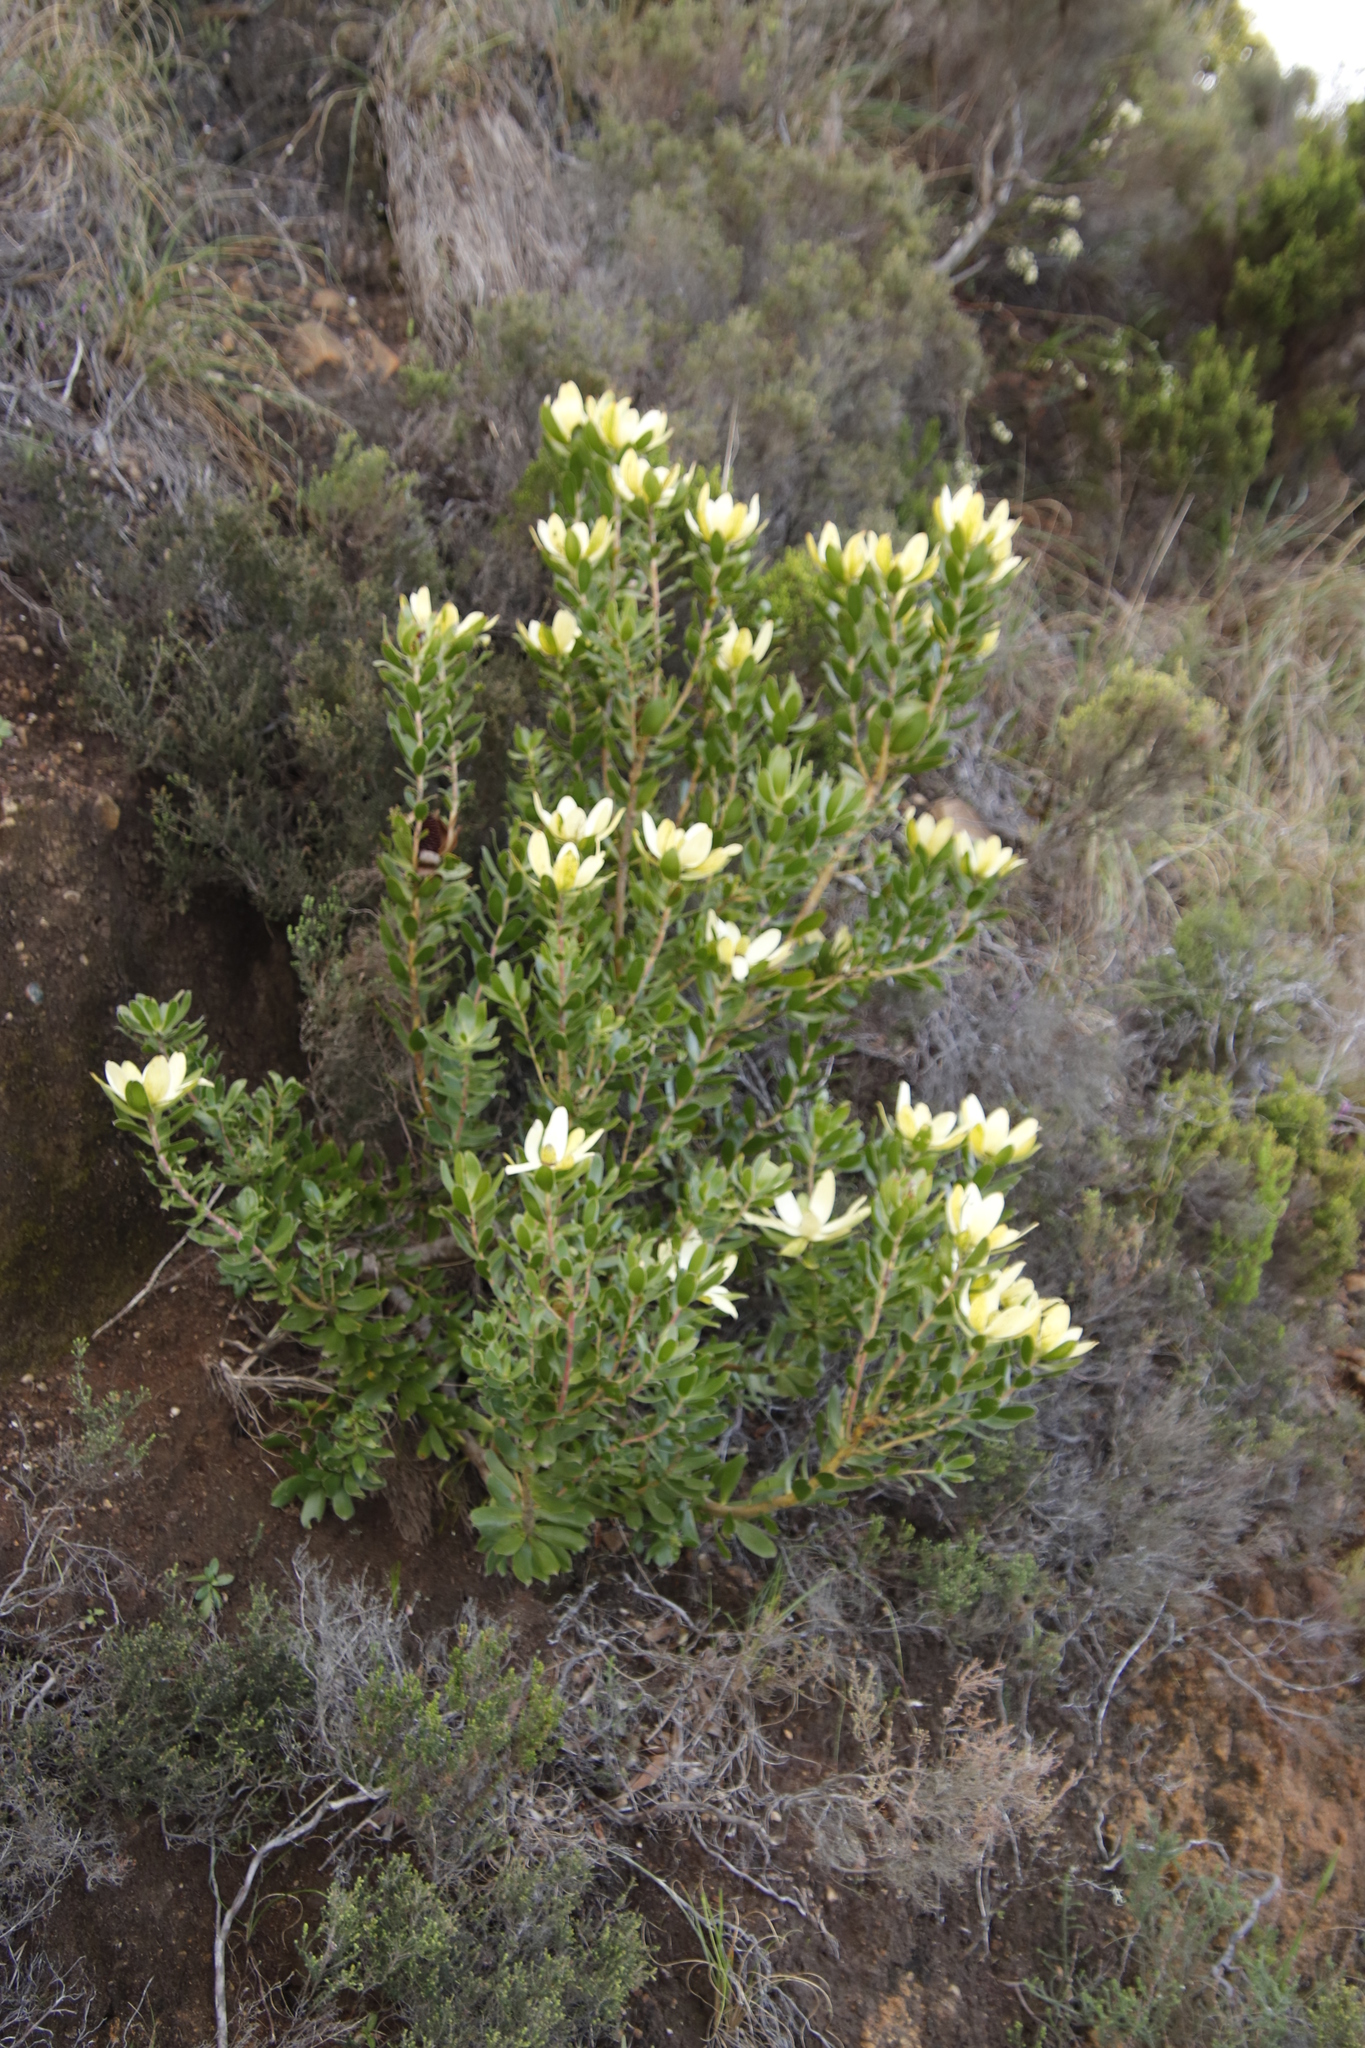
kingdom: Plantae
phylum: Tracheophyta
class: Magnoliopsida
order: Proteales
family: Proteaceae
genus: Leucadendron
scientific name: Leucadendron strobilinum
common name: Mountain rose
